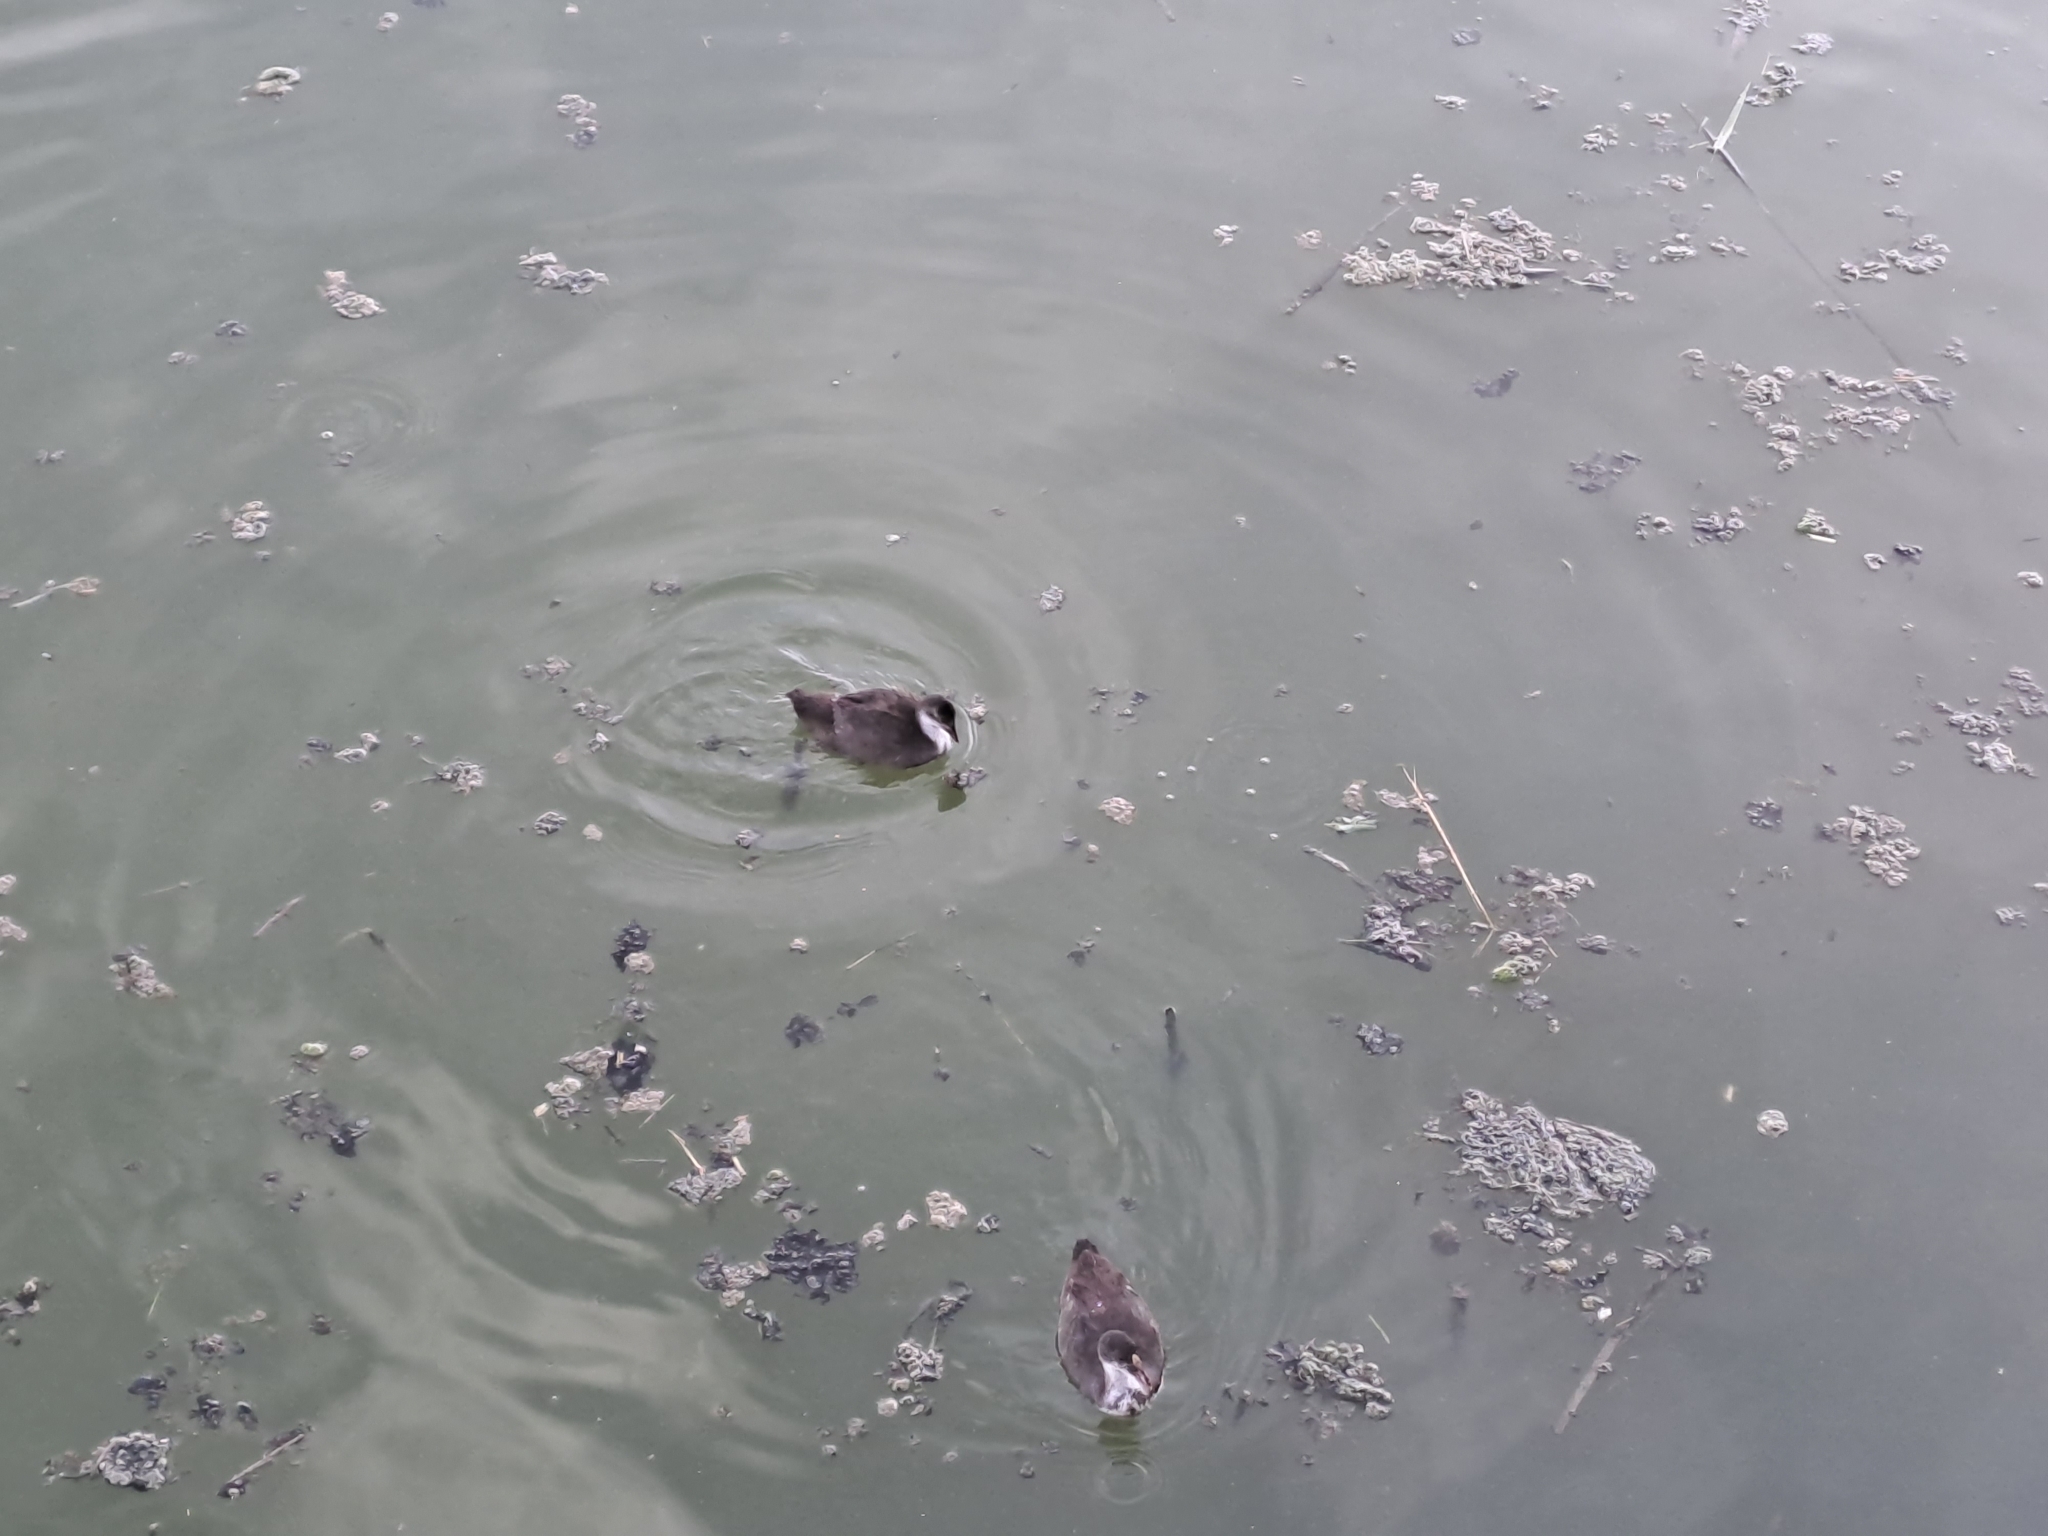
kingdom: Animalia
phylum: Chordata
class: Aves
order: Gruiformes
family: Rallidae
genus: Fulica
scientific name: Fulica atra
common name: Eurasian coot
